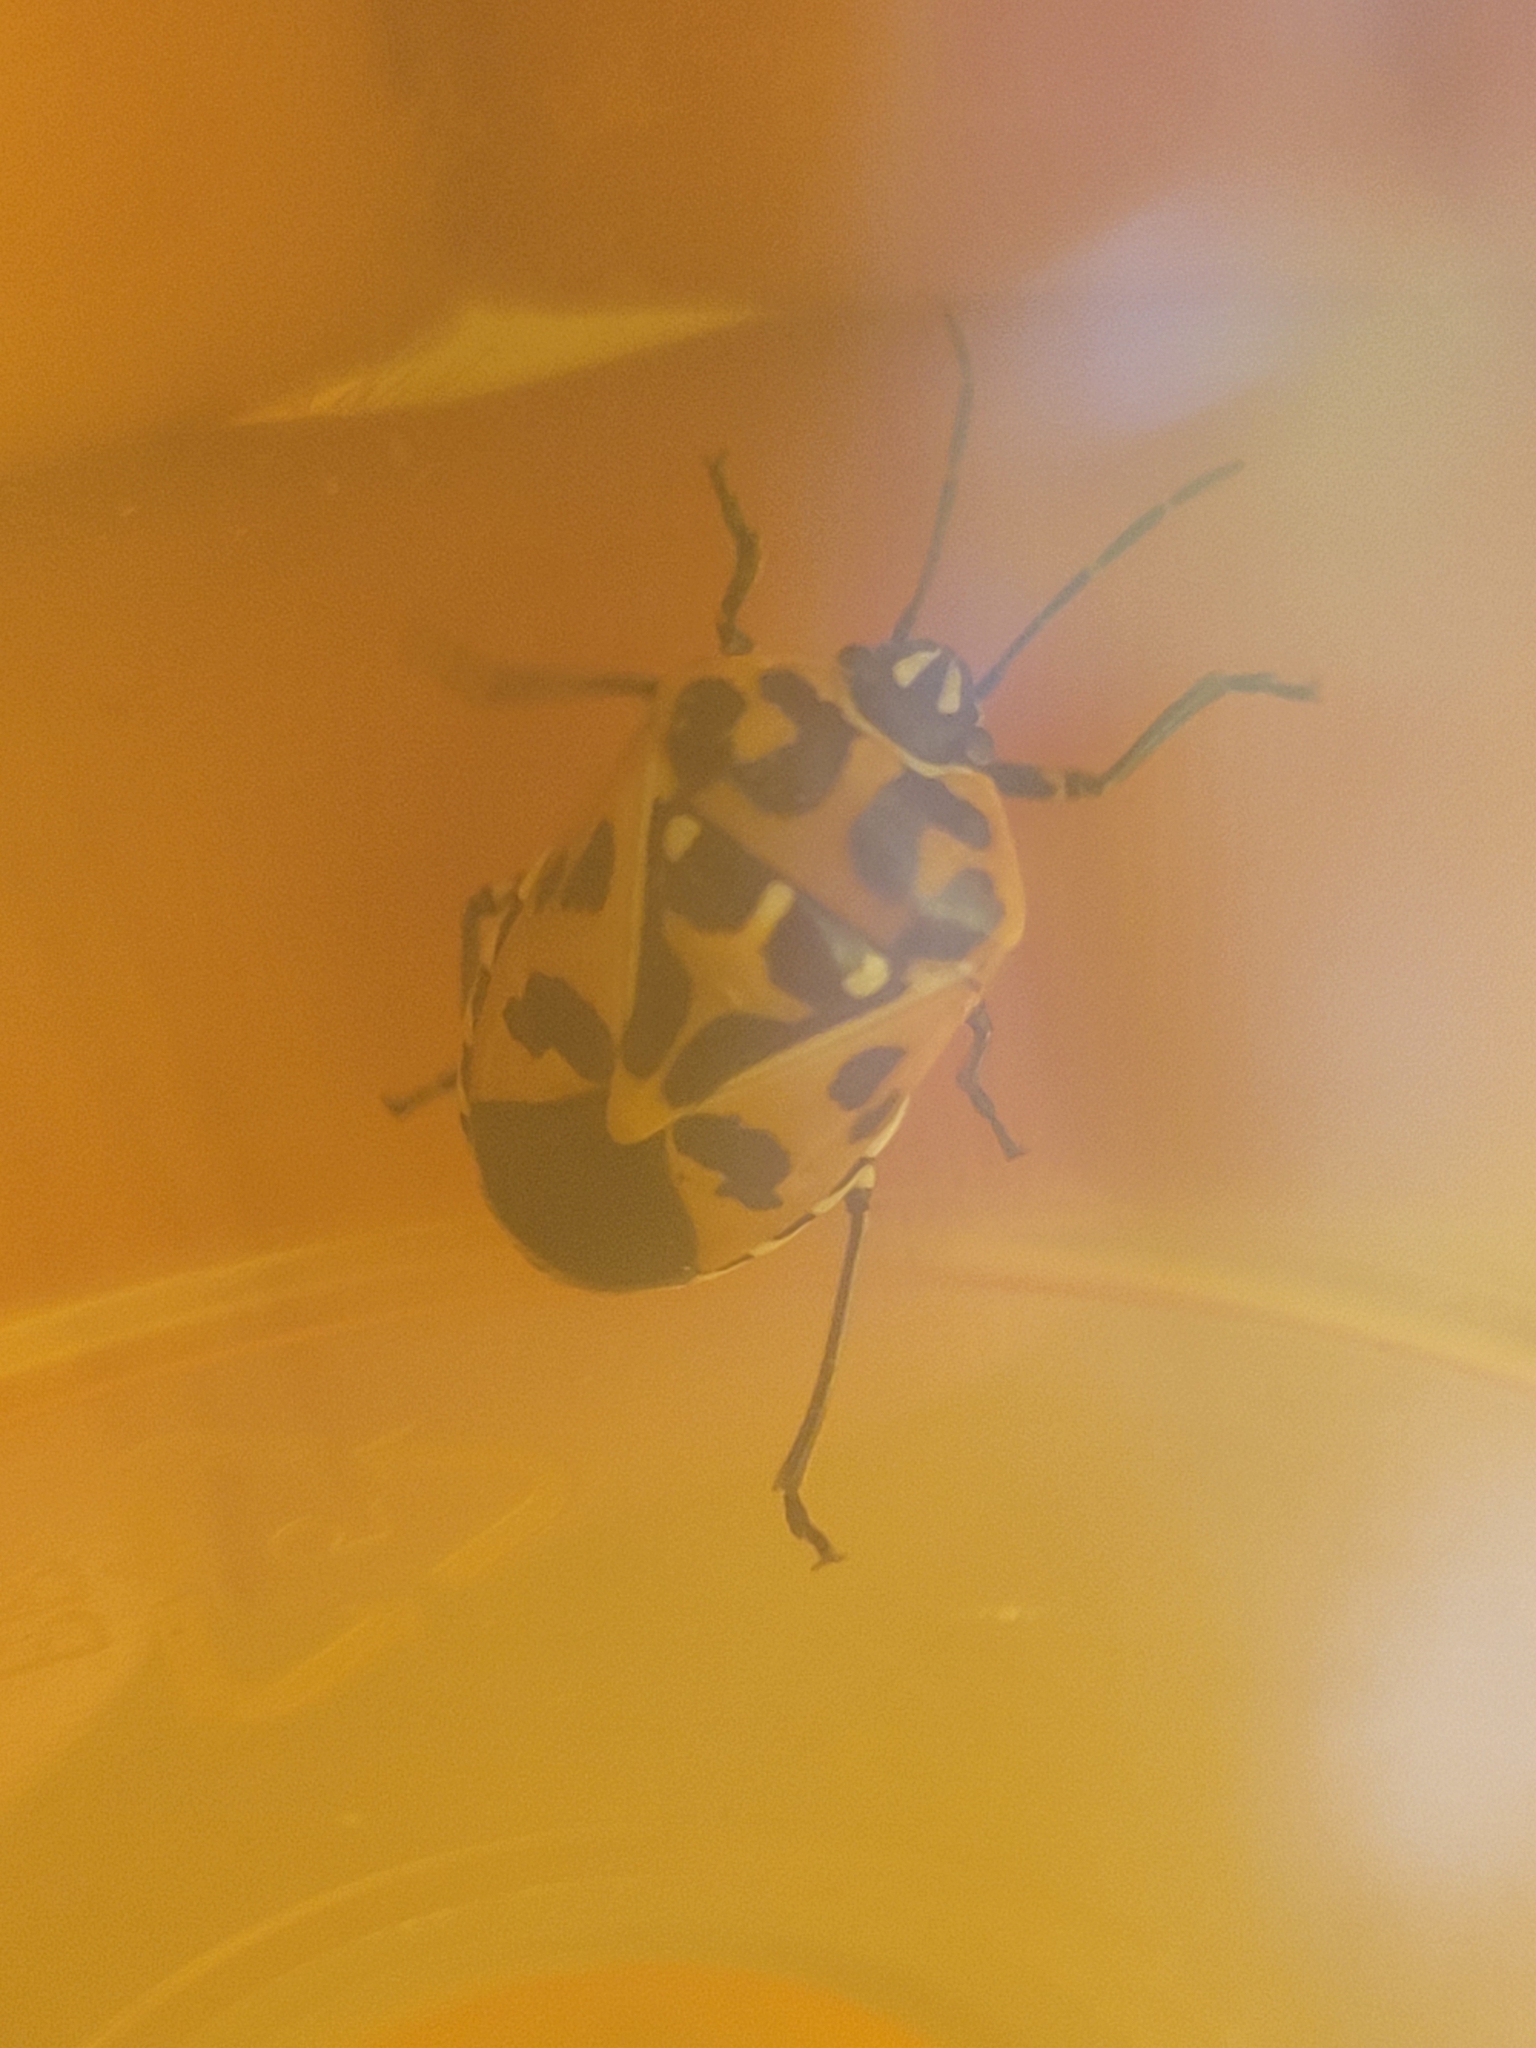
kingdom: Animalia
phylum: Arthropoda
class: Insecta
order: Hemiptera
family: Pentatomidae
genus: Murgantia
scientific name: Murgantia histrionica
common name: Harlequin bug
